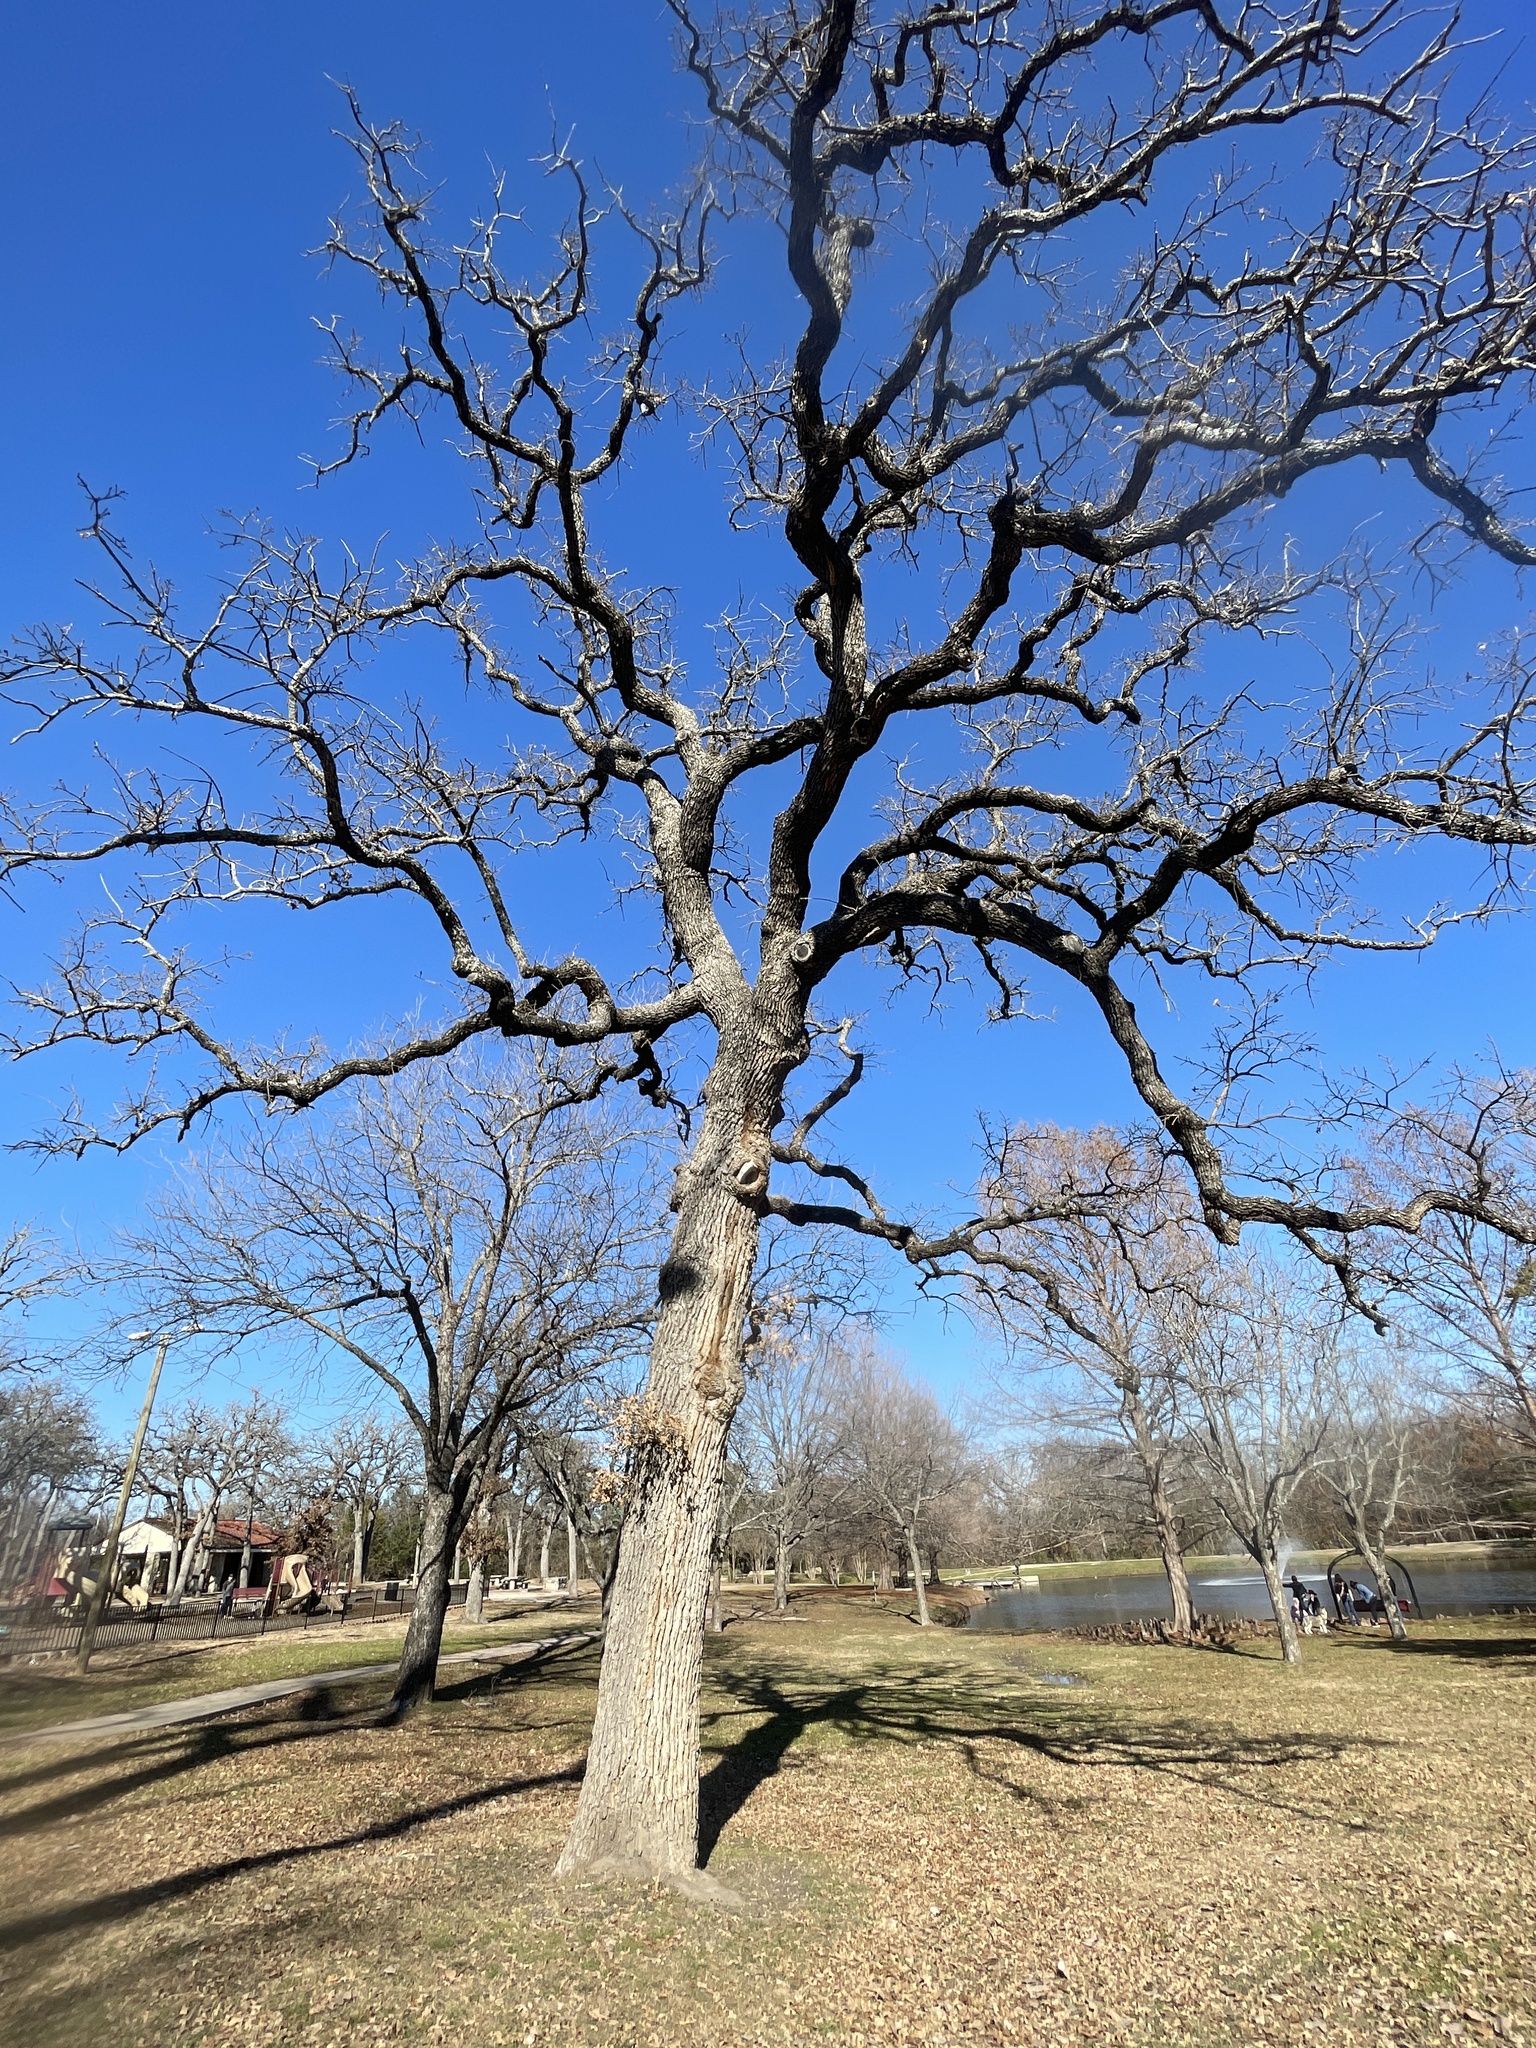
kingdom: Plantae
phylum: Tracheophyta
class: Magnoliopsida
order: Fagales
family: Fagaceae
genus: Quercus
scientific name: Quercus stellata
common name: Post oak
